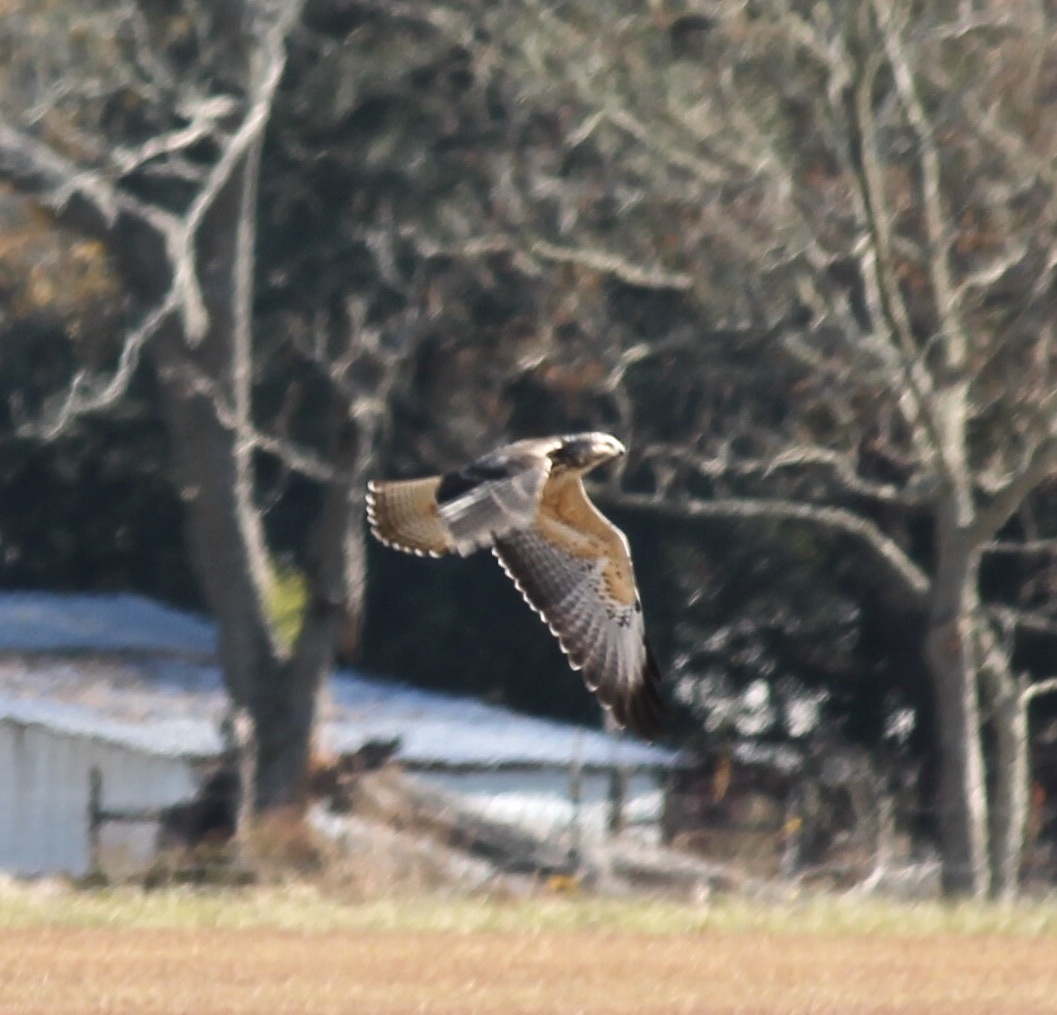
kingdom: Animalia
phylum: Chordata
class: Aves
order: Accipitriformes
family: Accipitridae
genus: Buteo
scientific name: Buteo swainsoni
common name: Swainson's hawk
